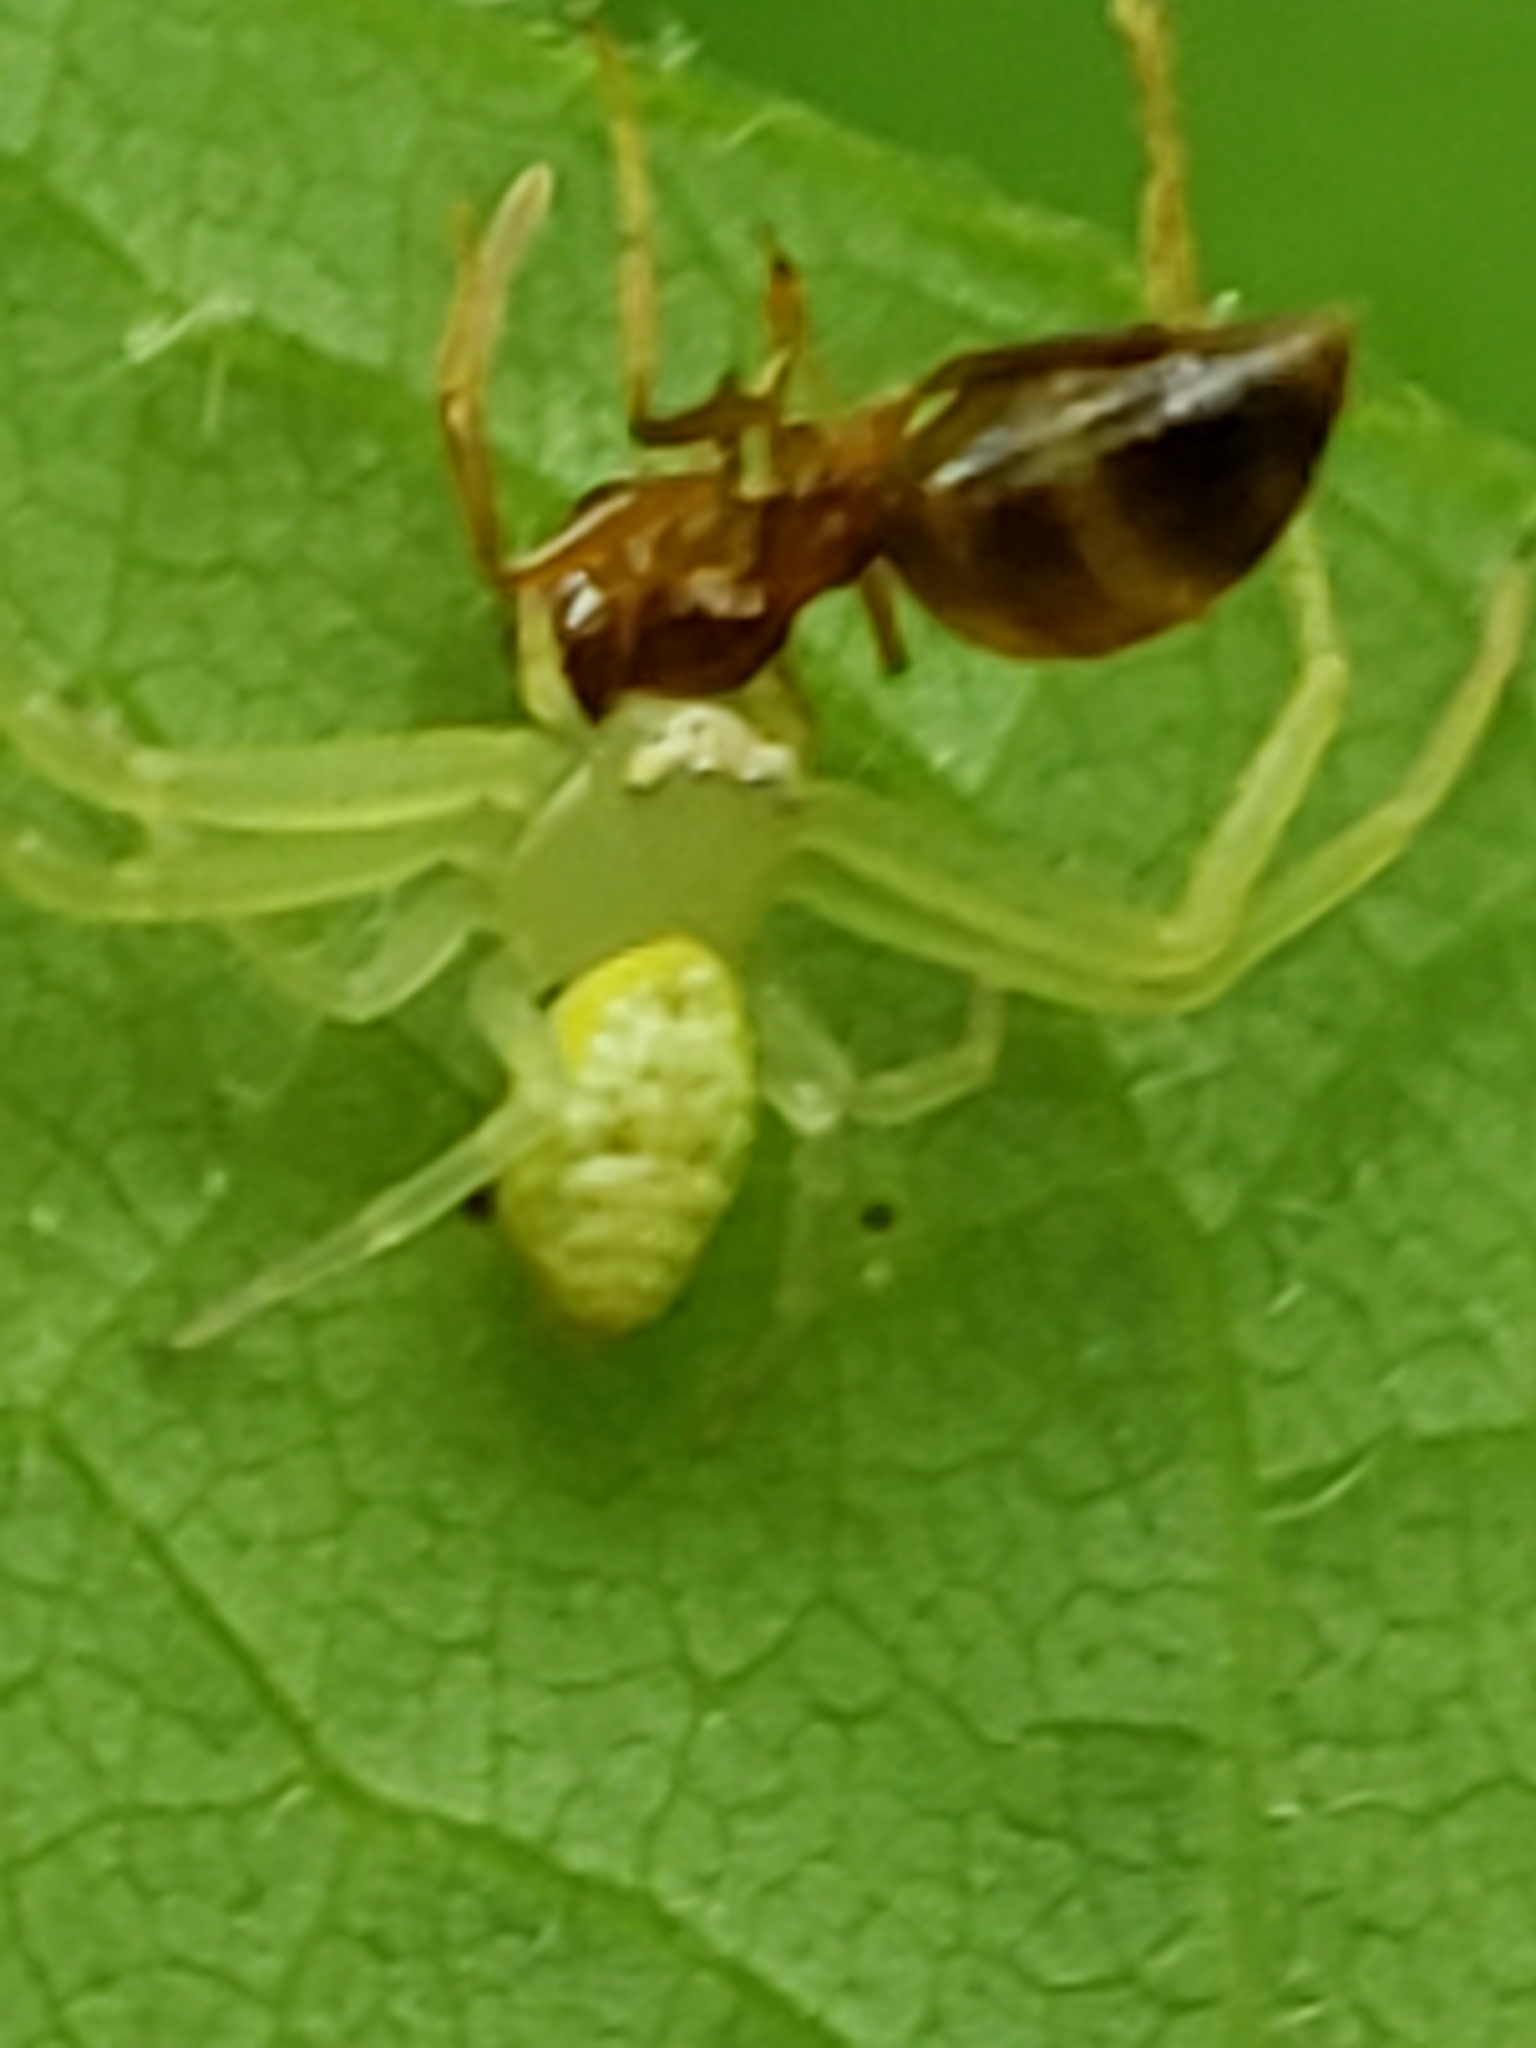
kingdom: Animalia
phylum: Arthropoda
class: Arachnida
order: Araneae
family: Thomisidae
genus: Misumessus
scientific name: Misumessus oblongus
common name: American green crab spider
